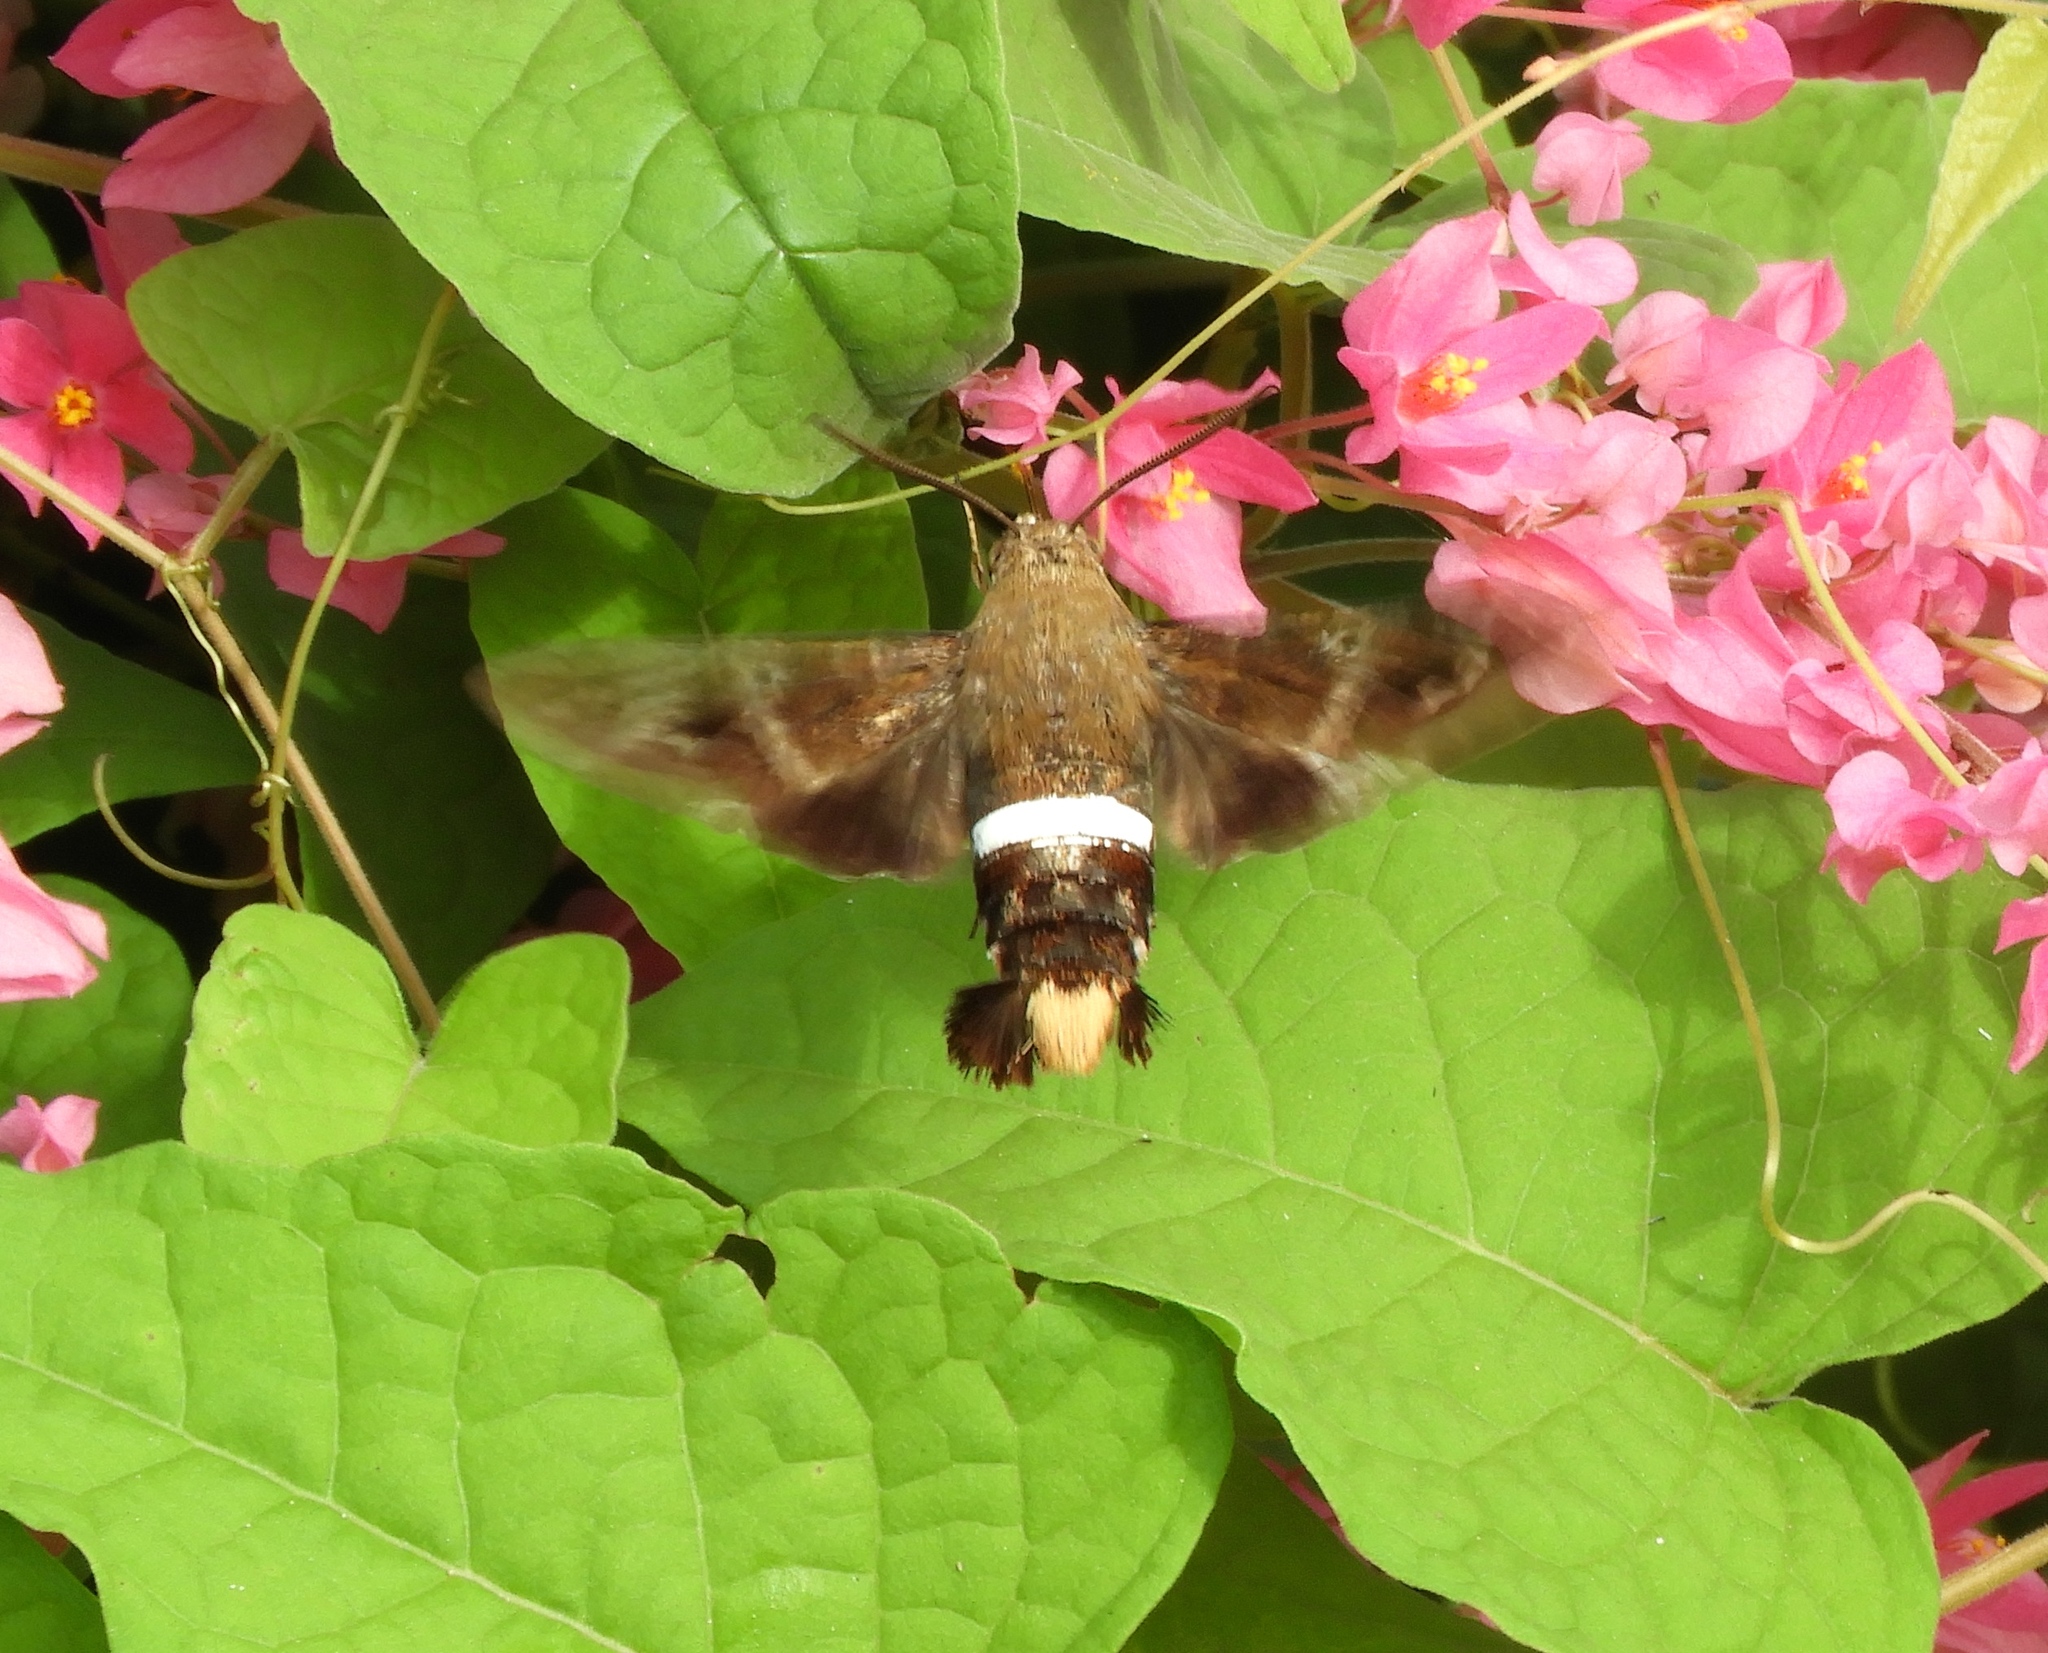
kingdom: Animalia
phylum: Arthropoda
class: Insecta
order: Lepidoptera
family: Sphingidae
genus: Aellopos
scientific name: Aellopos clavipes
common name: Clavipes sphinx
